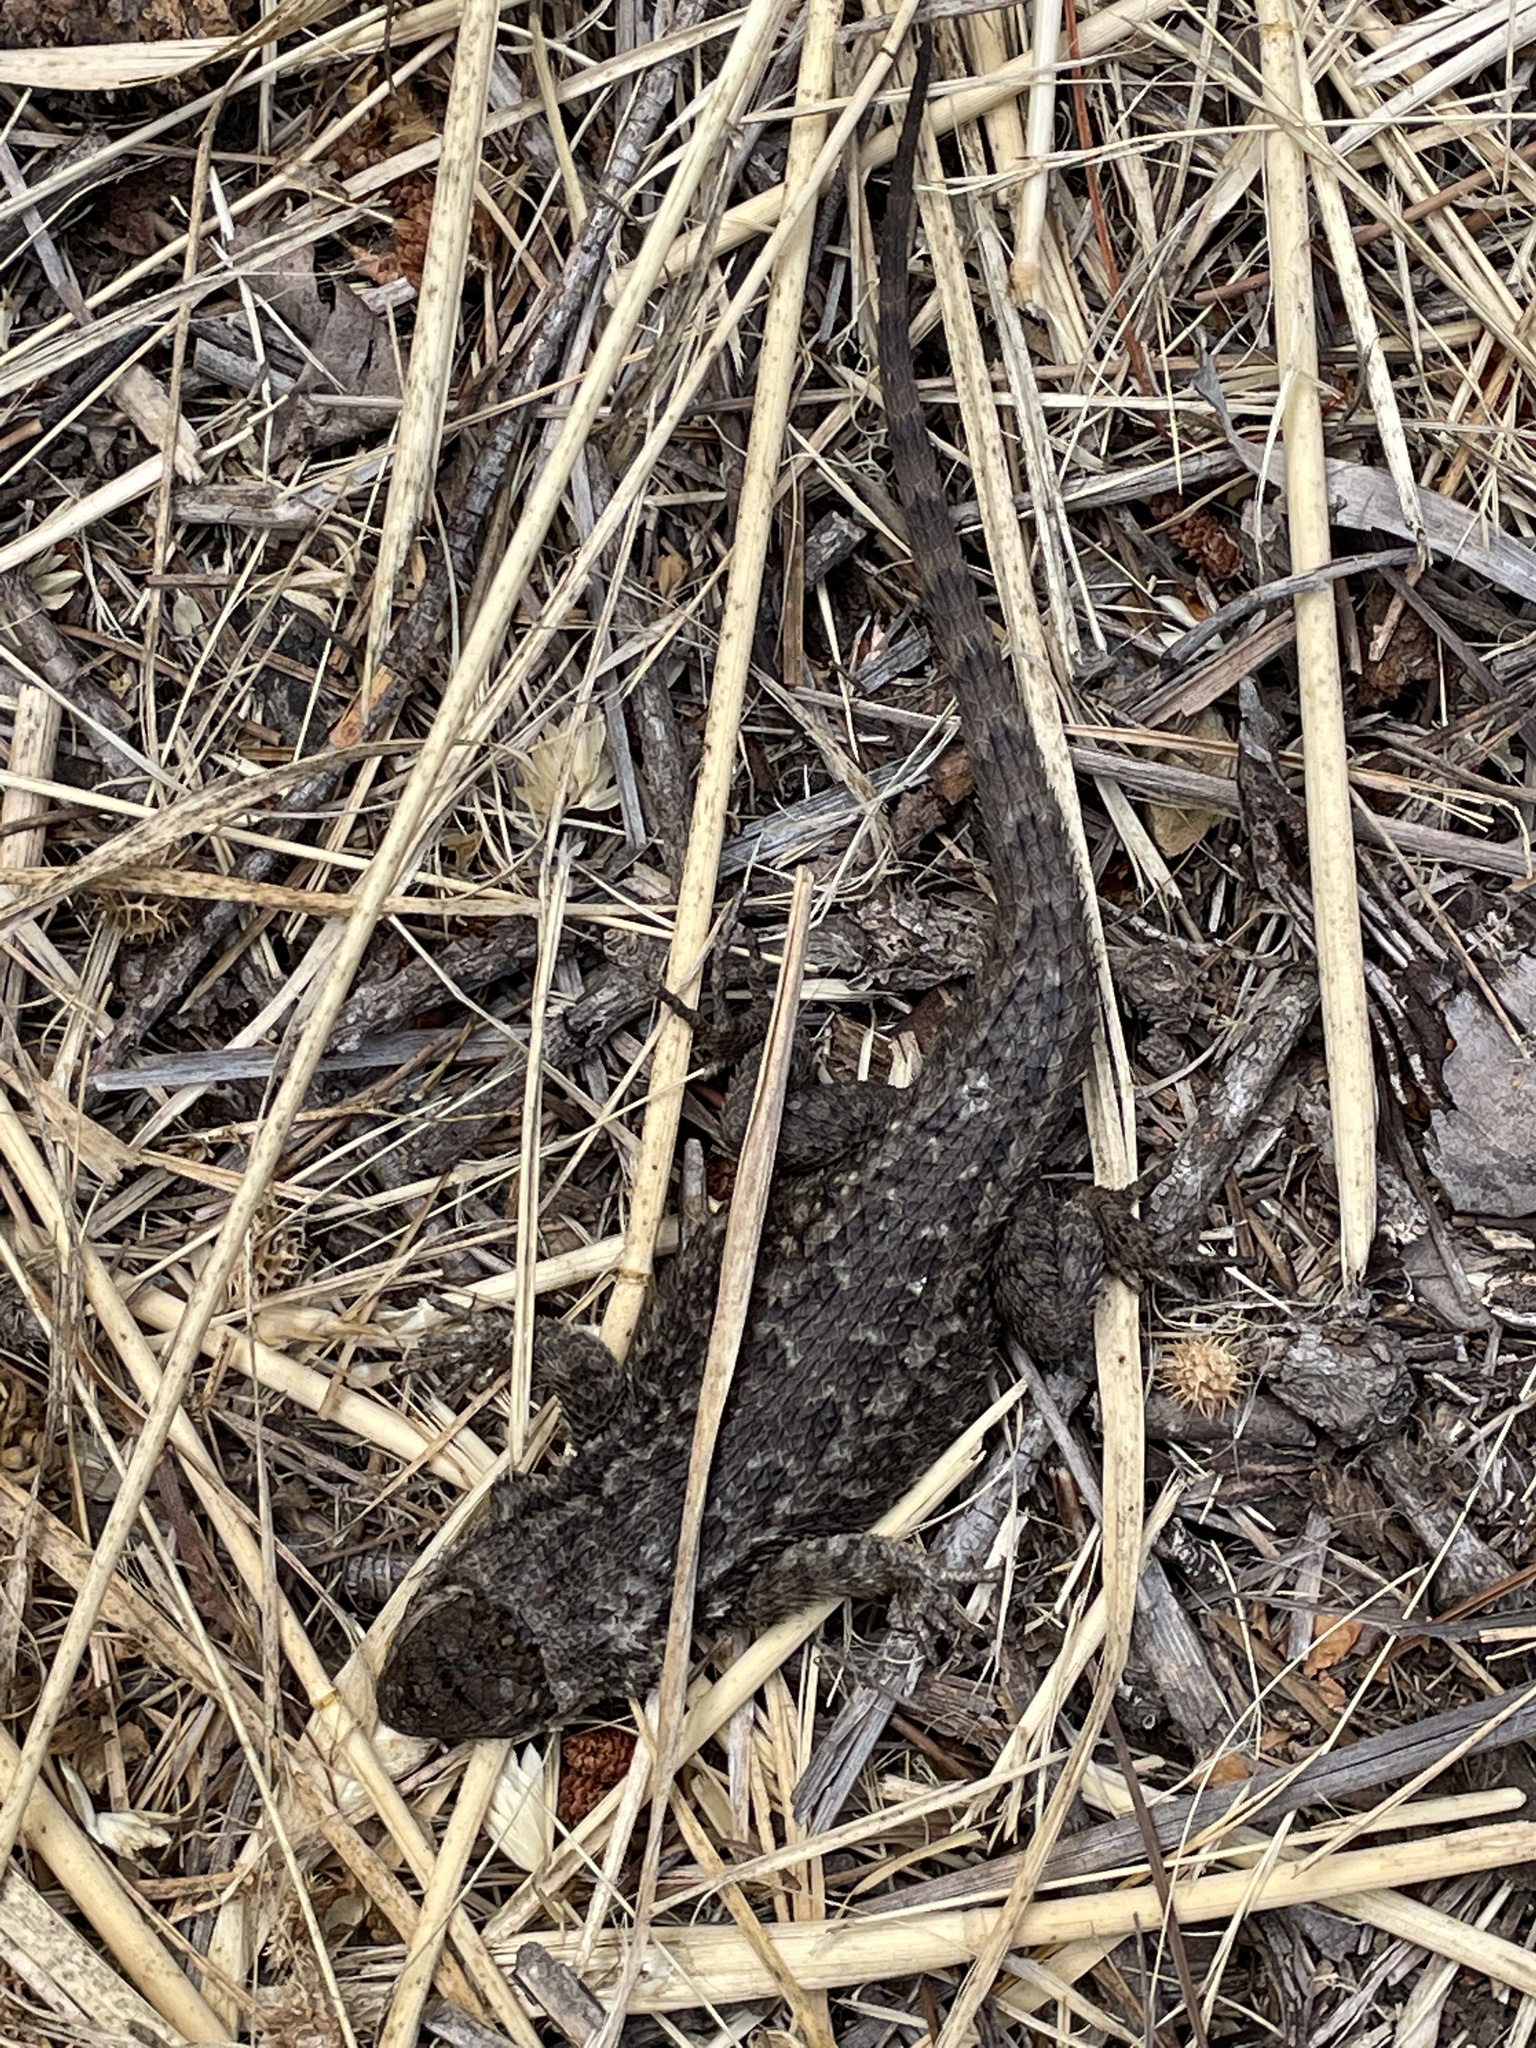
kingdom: Animalia
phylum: Chordata
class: Squamata
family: Phrynosomatidae
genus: Sceloporus
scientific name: Sceloporus occidentalis
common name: Western fence lizard
